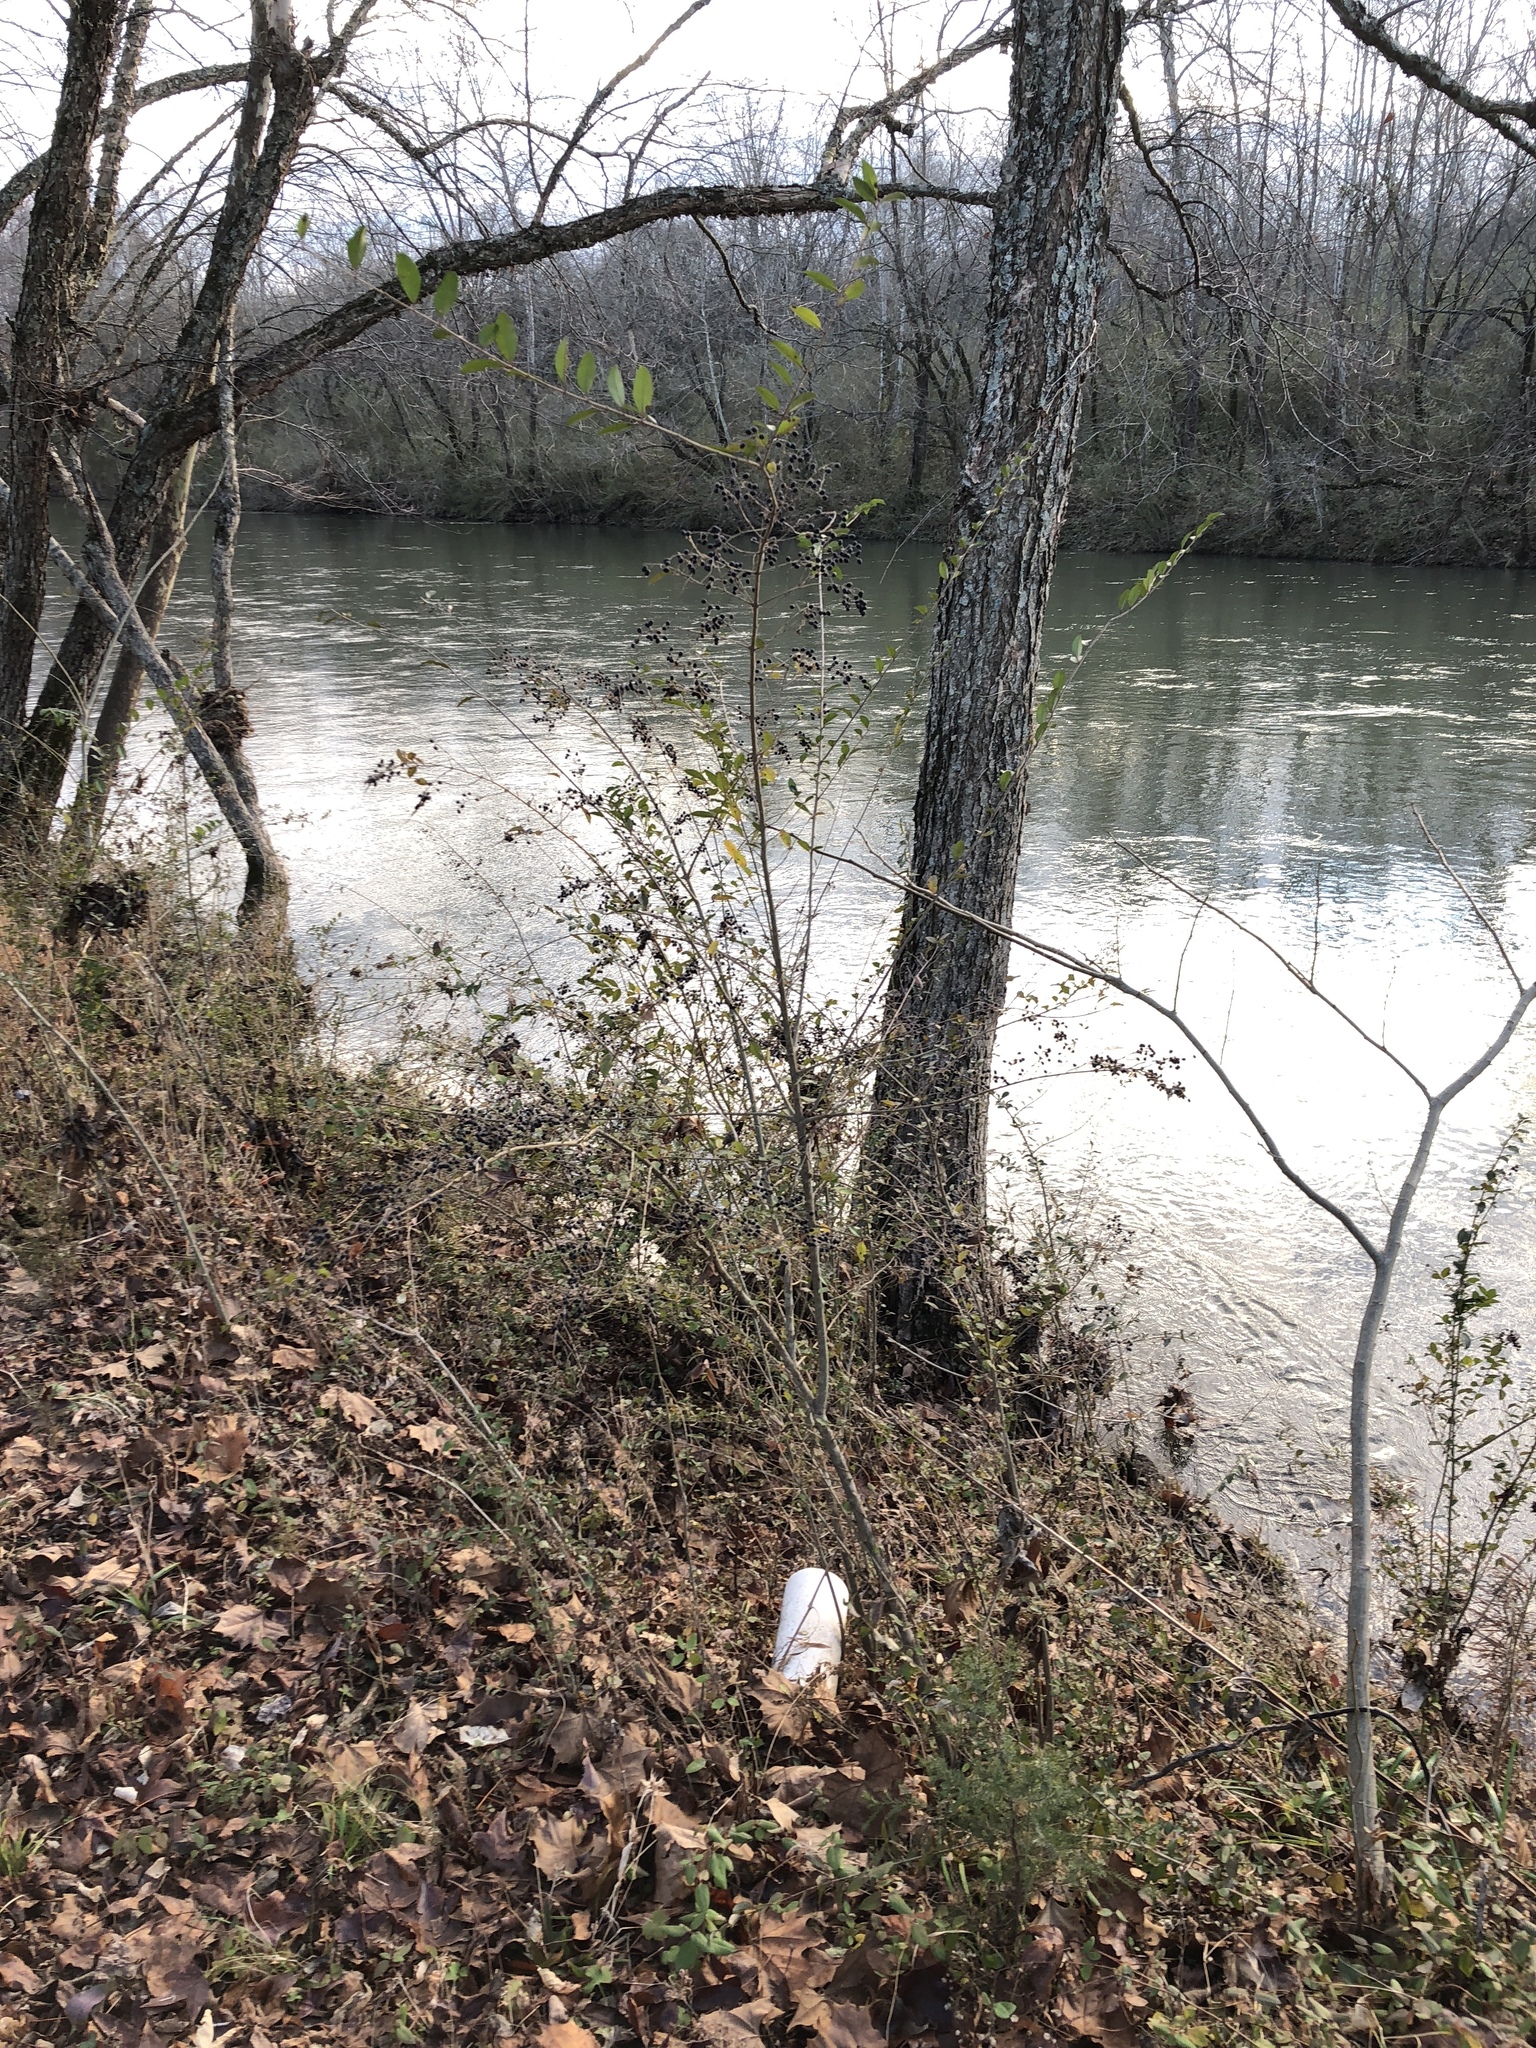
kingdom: Plantae
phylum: Tracheophyta
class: Magnoliopsida
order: Lamiales
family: Oleaceae
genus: Ligustrum
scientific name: Ligustrum sinense
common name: Chinese privet
